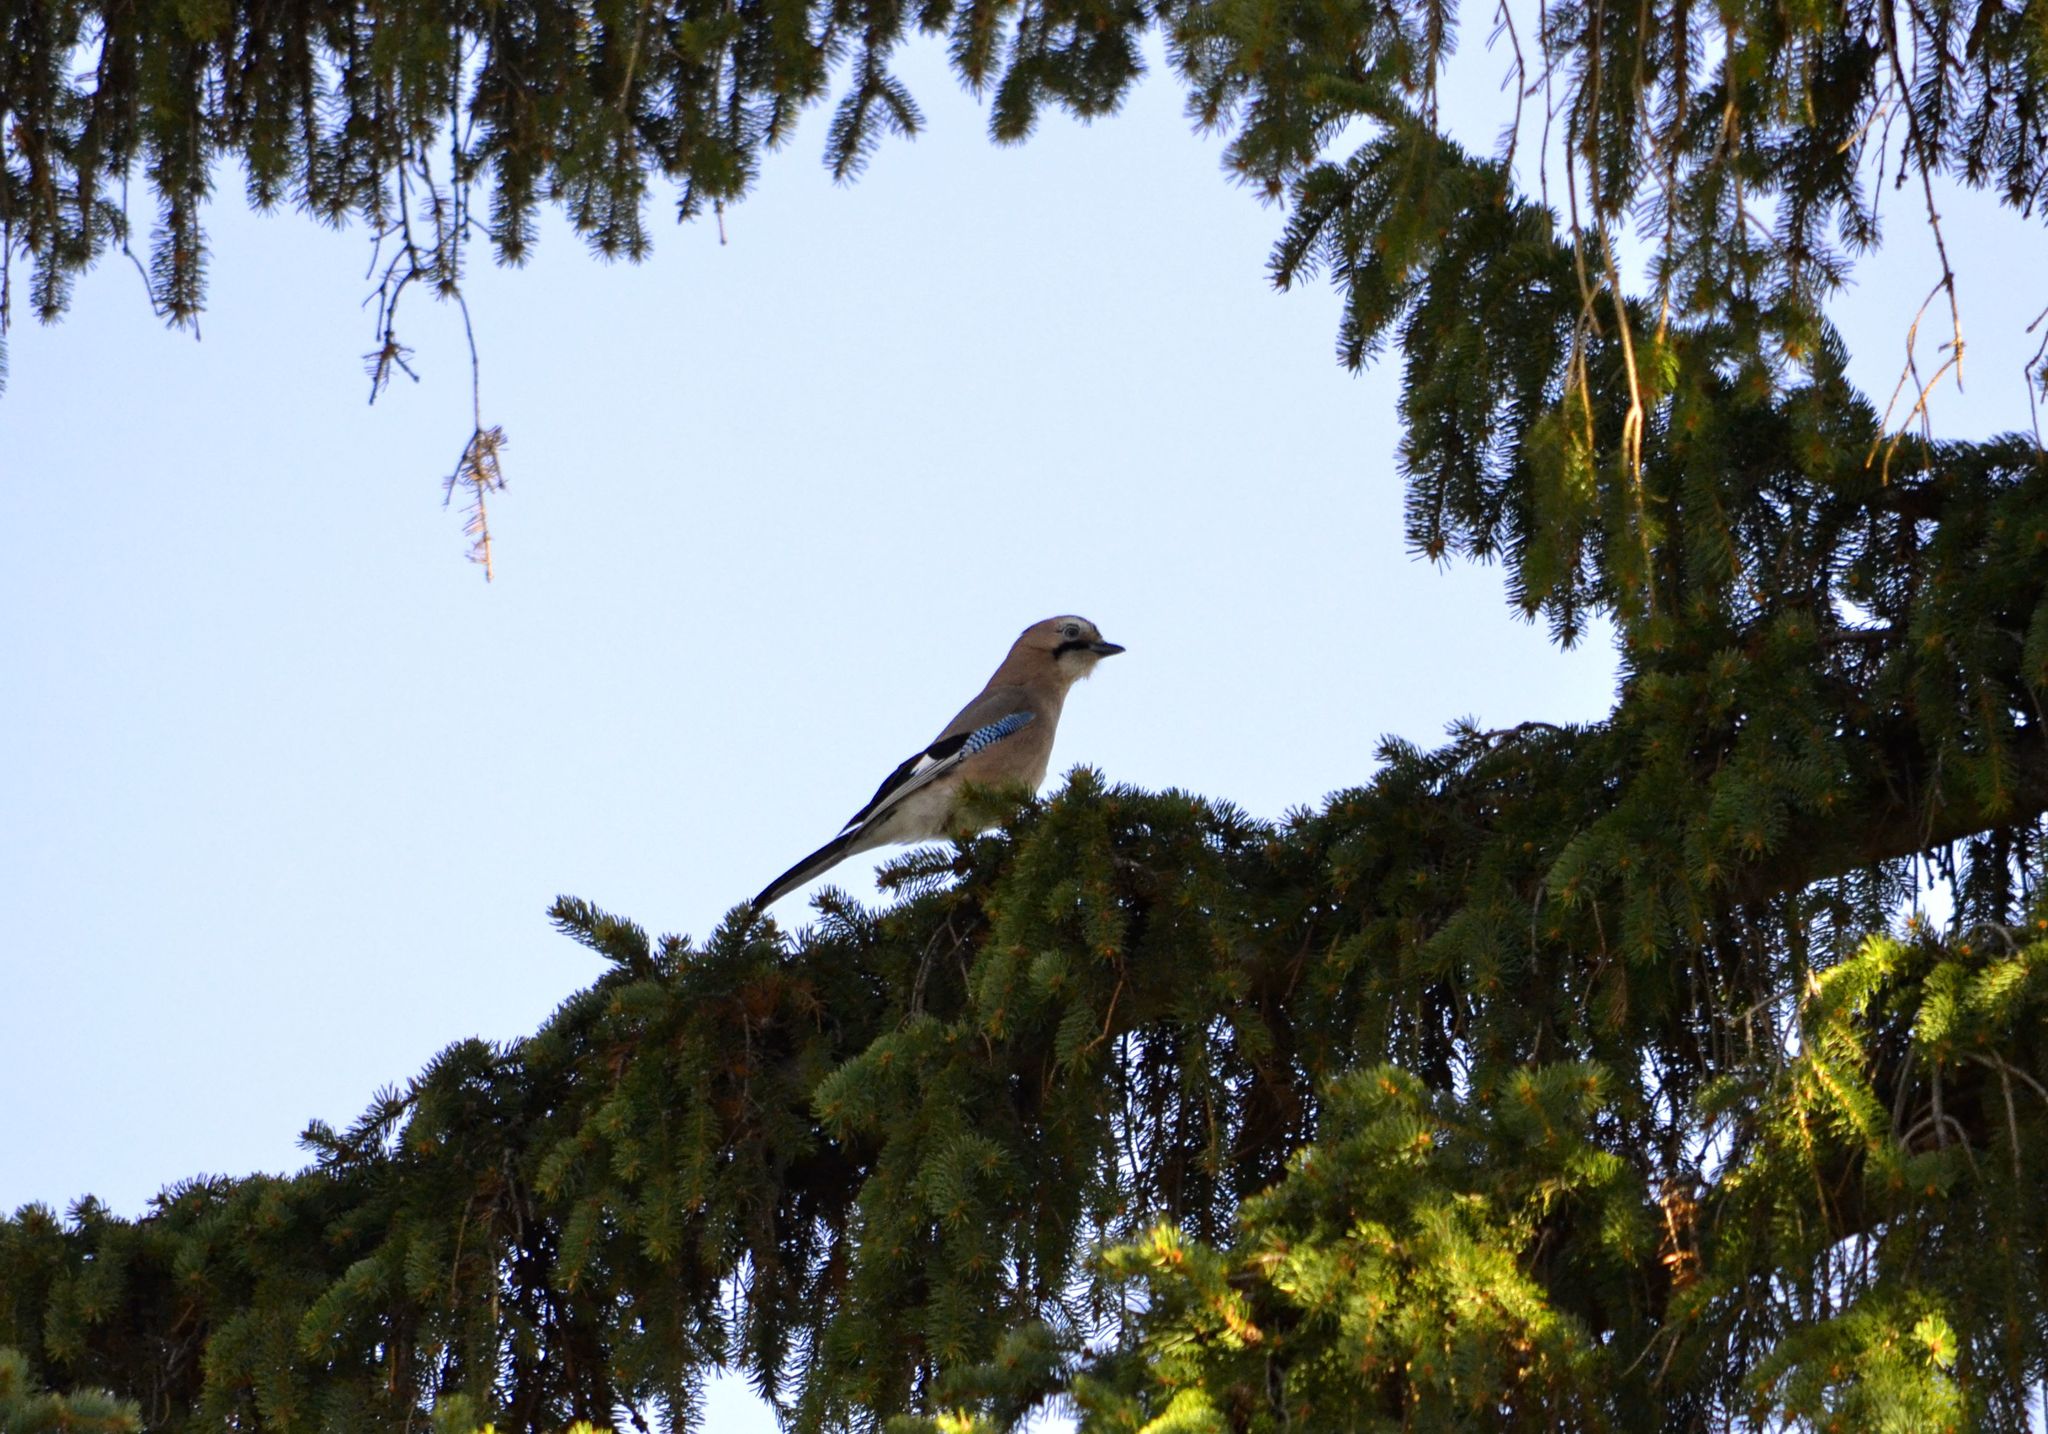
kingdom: Animalia
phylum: Chordata
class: Aves
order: Passeriformes
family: Corvidae
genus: Garrulus
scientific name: Garrulus glandarius
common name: Eurasian jay
